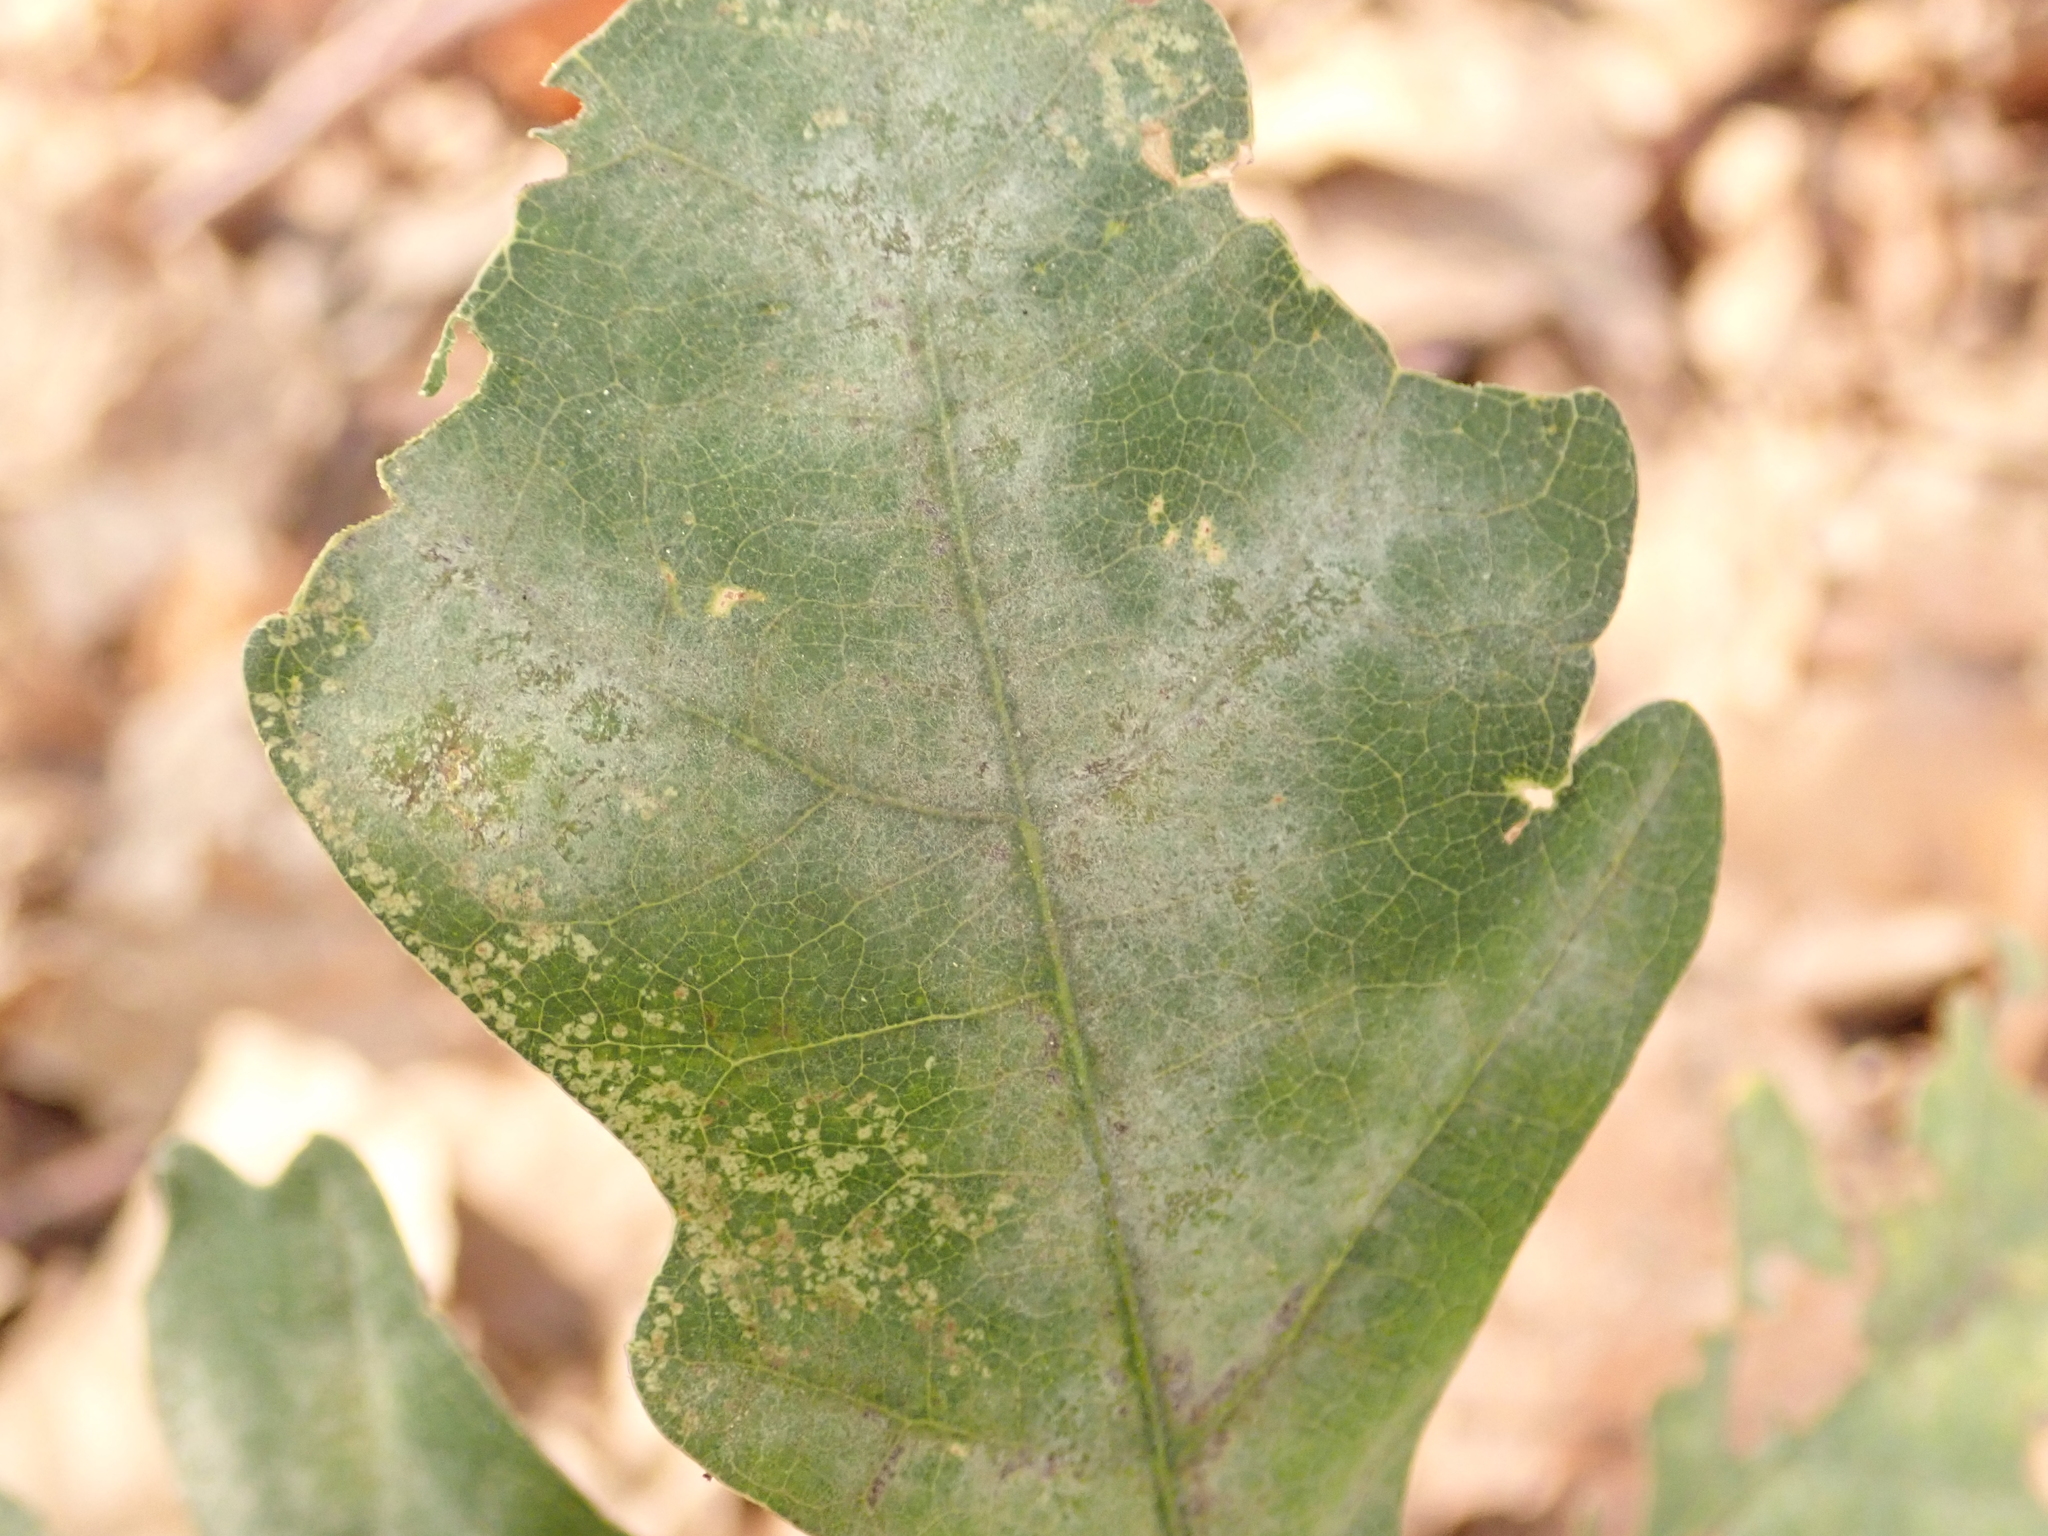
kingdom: Fungi
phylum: Ascomycota
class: Leotiomycetes
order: Helotiales
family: Erysiphaceae
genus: Erysiphe
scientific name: Erysiphe
